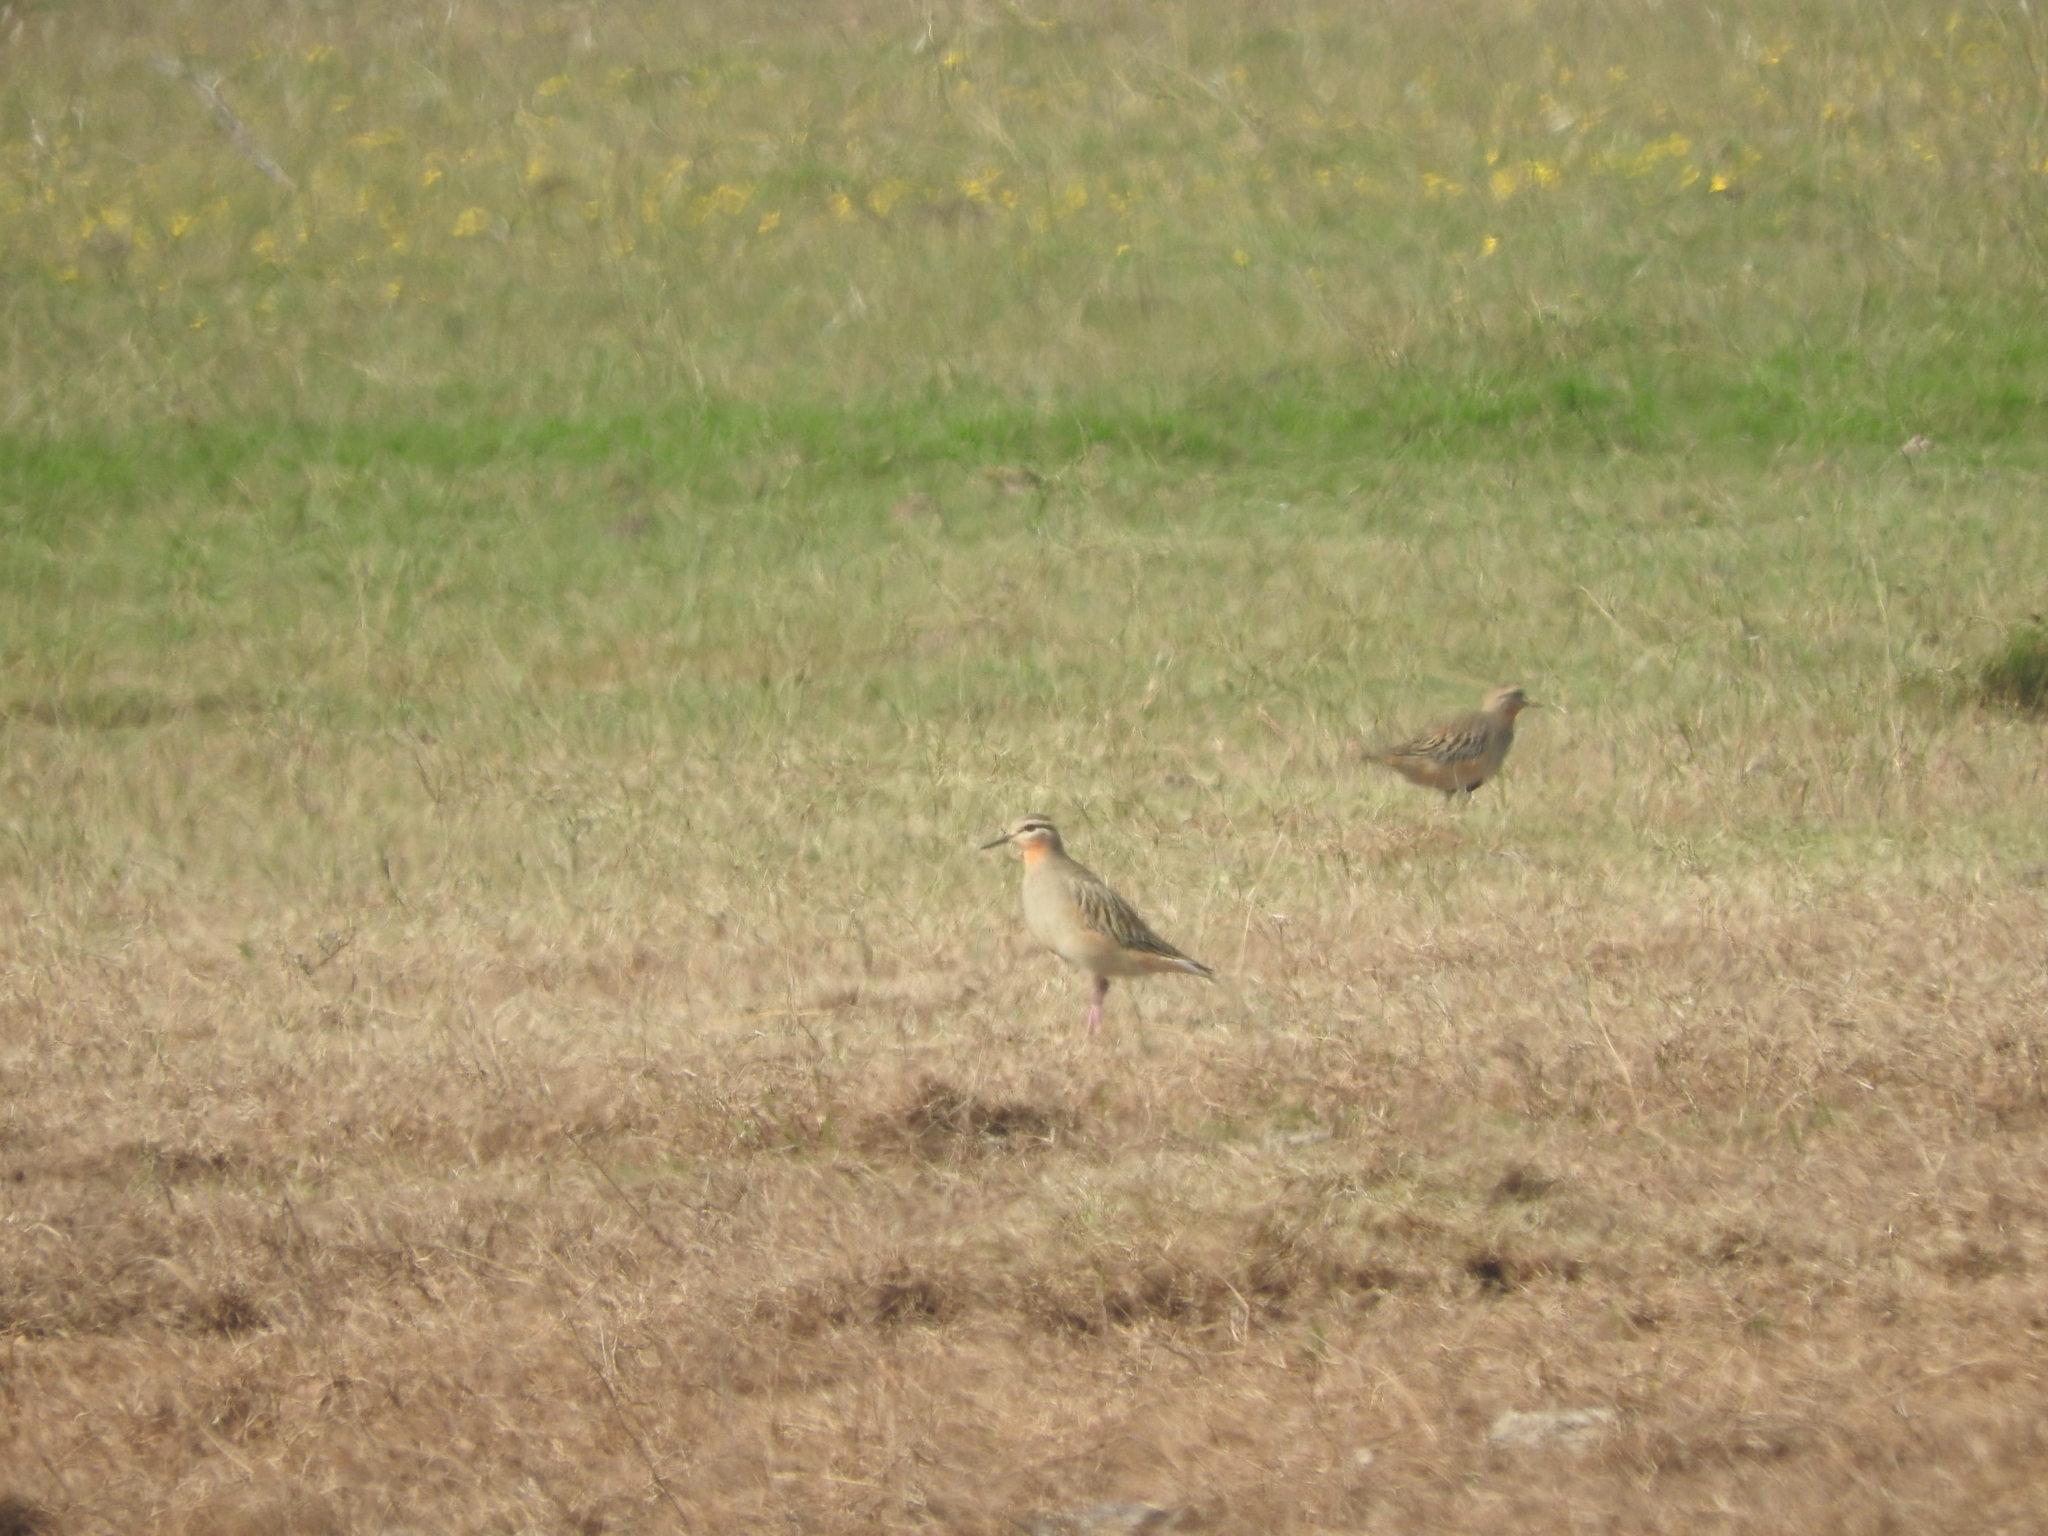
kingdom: Animalia
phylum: Chordata
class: Aves
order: Charadriiformes
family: Charadriidae
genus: Oreopholus
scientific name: Oreopholus ruficollis
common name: Tawny-throated dotterel
